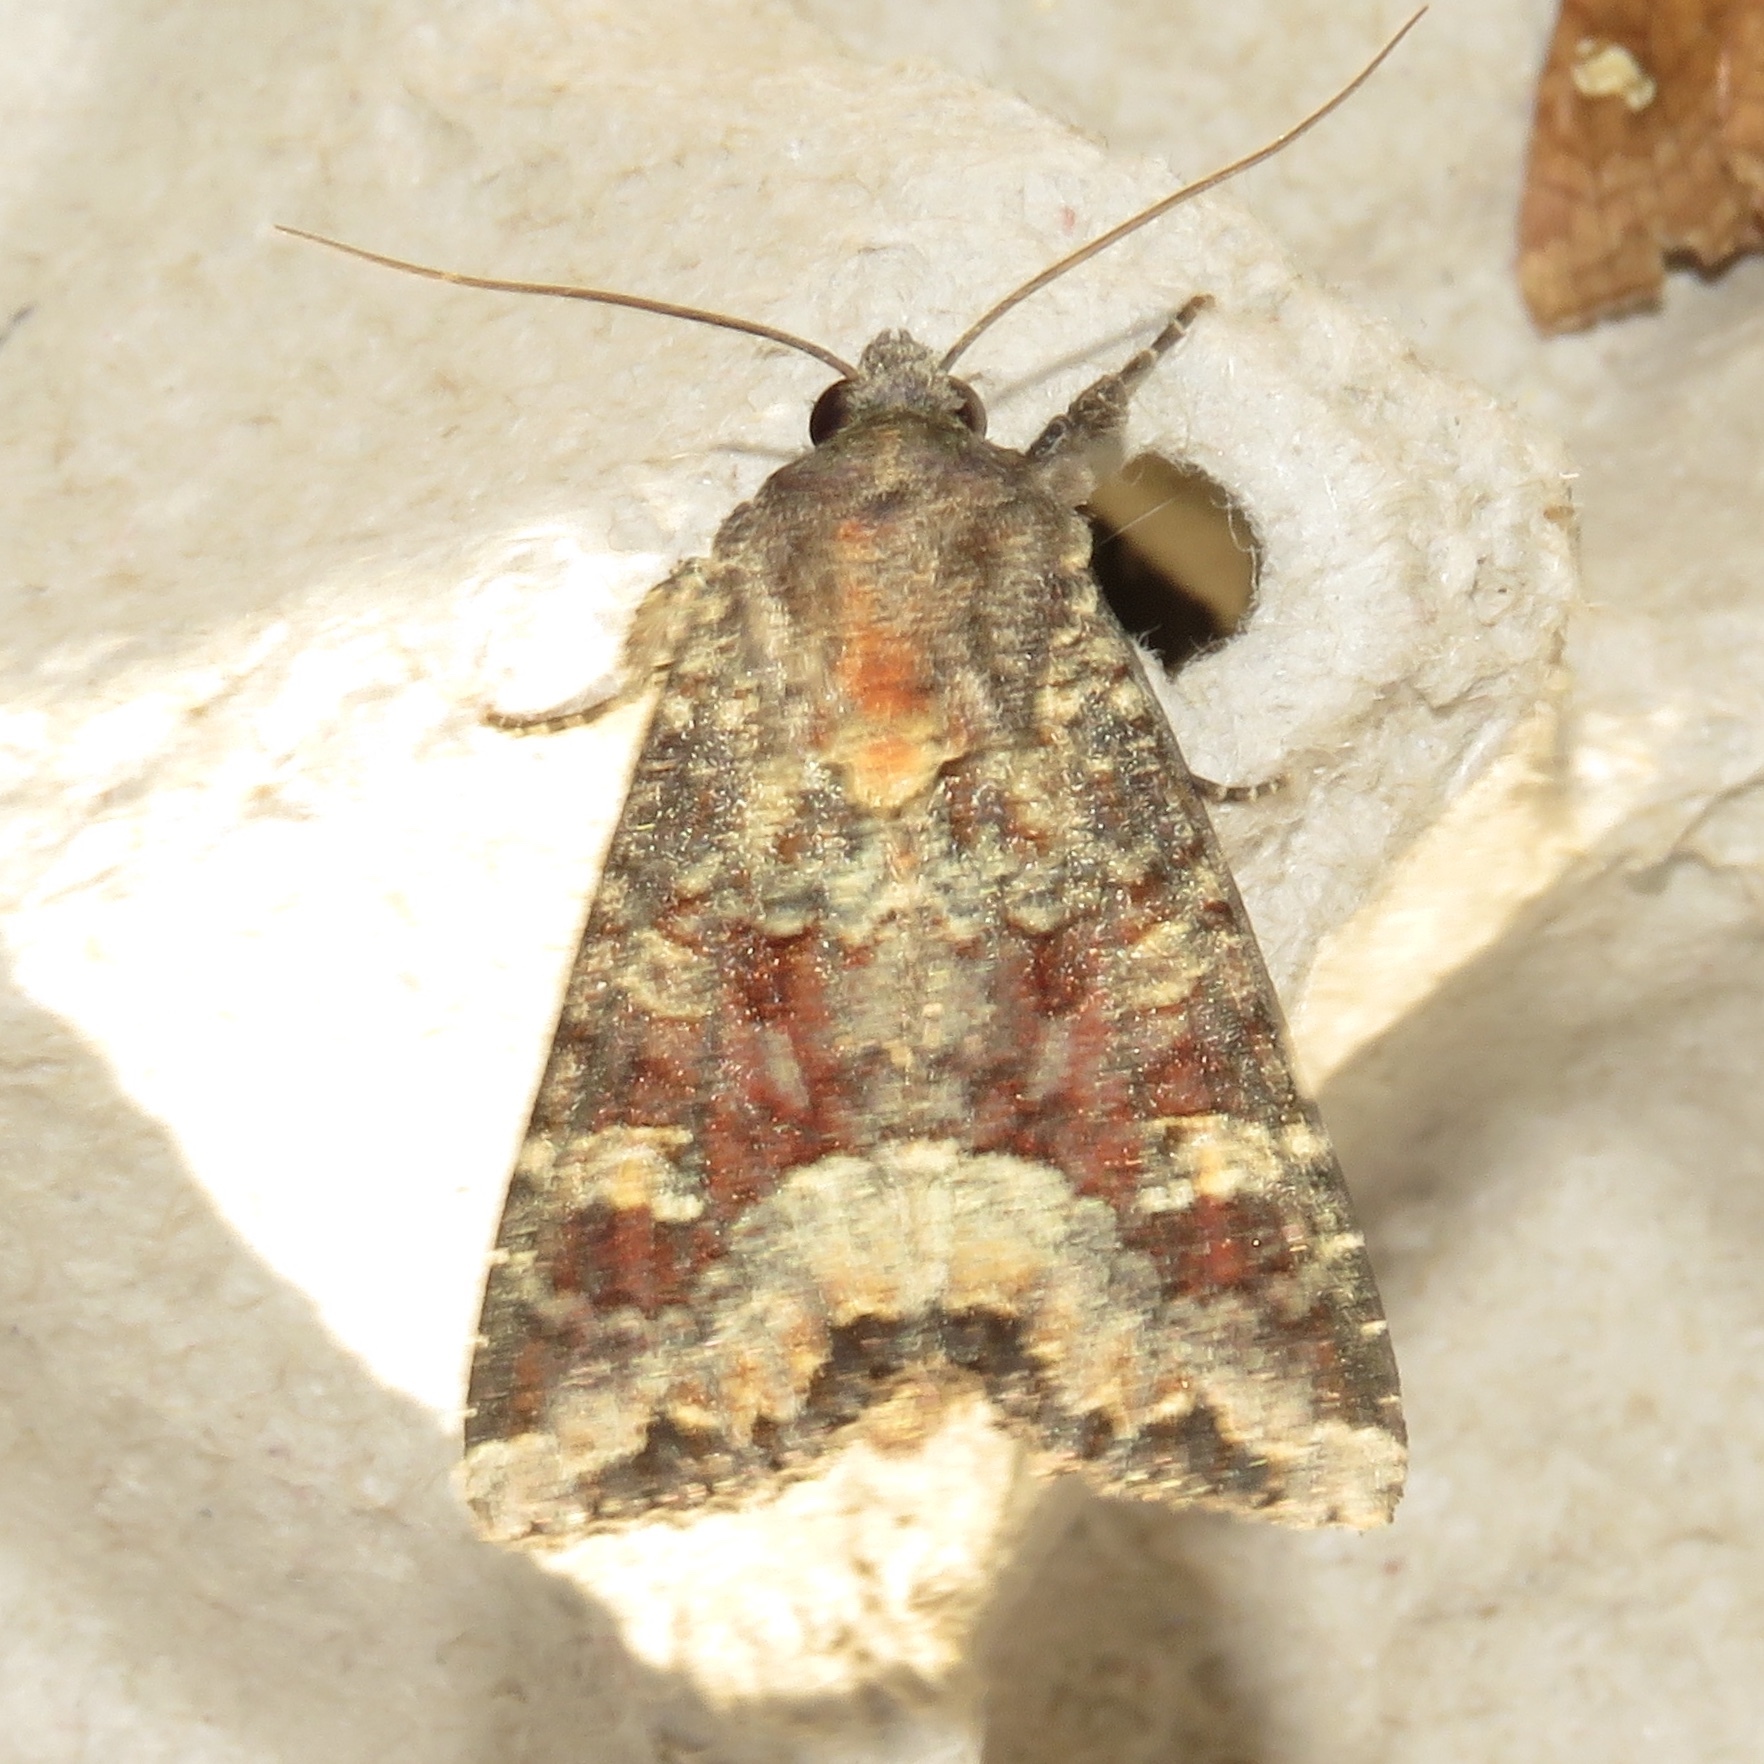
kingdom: Animalia
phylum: Arthropoda
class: Insecta
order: Lepidoptera
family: Noctuidae
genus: Apamea
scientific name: Apamea amputatrix
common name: Yellow-headed cutworm moth
